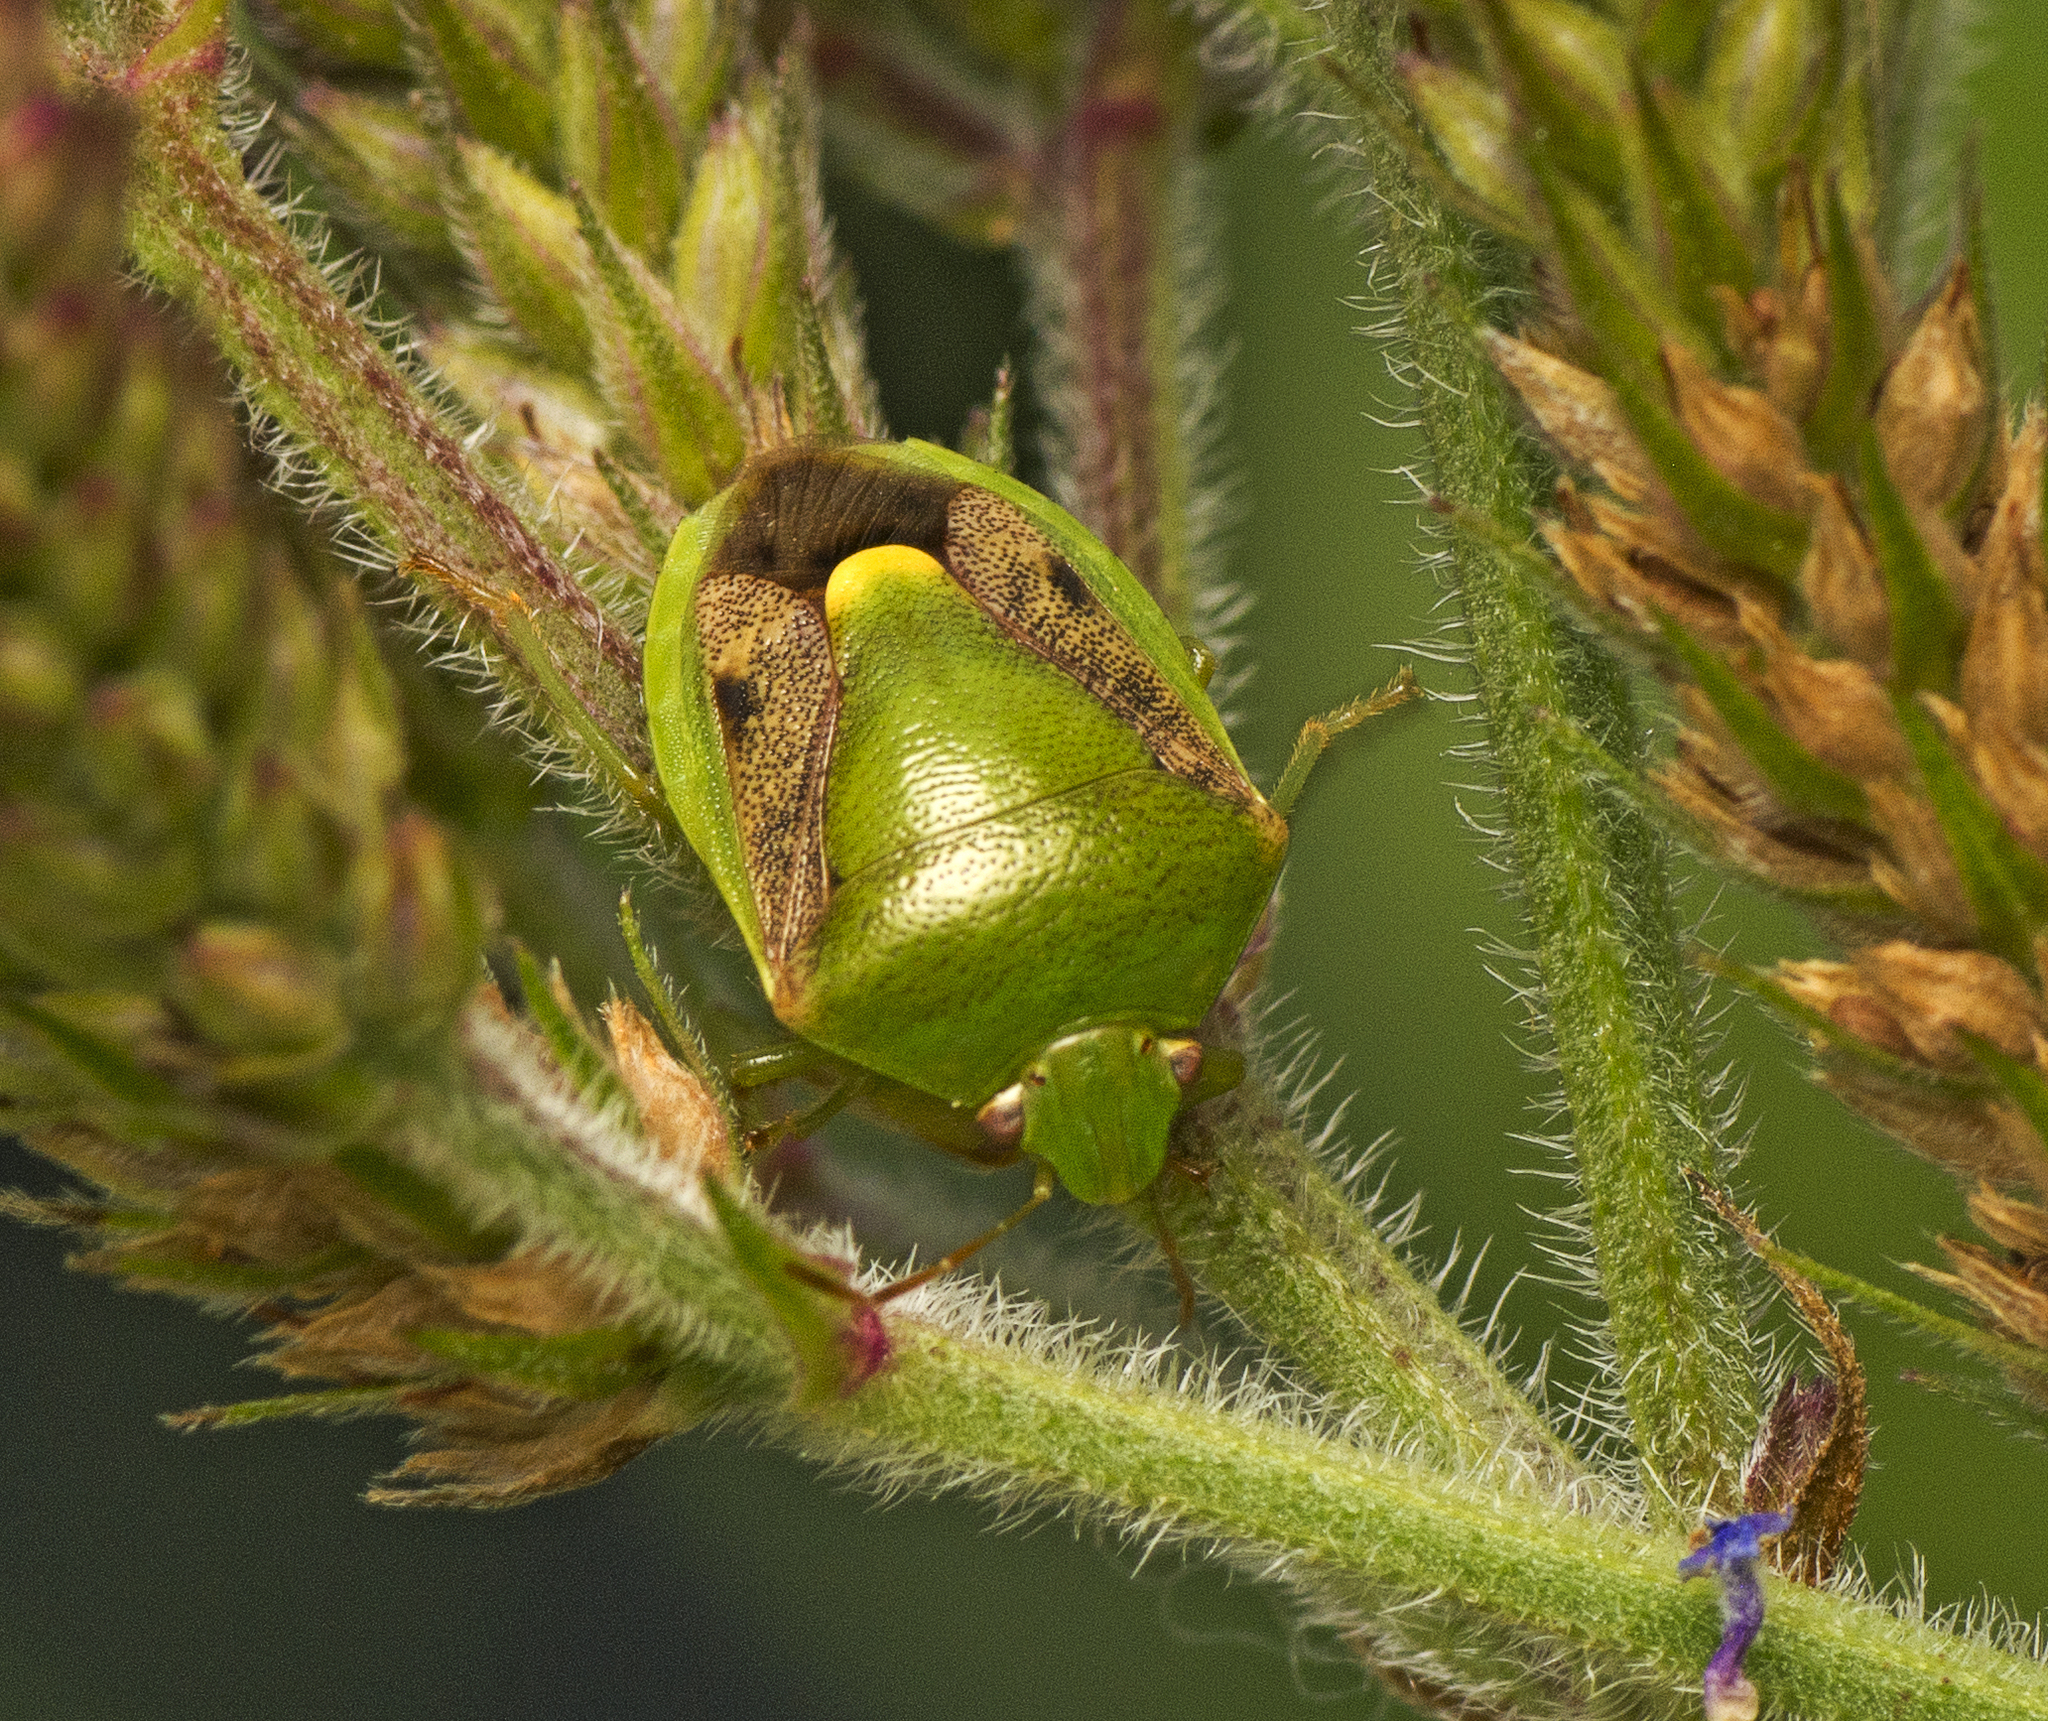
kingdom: Animalia
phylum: Arthropoda
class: Insecta
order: Hemiptera
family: Pentatomidae
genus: Plautia
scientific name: Plautia affinis
